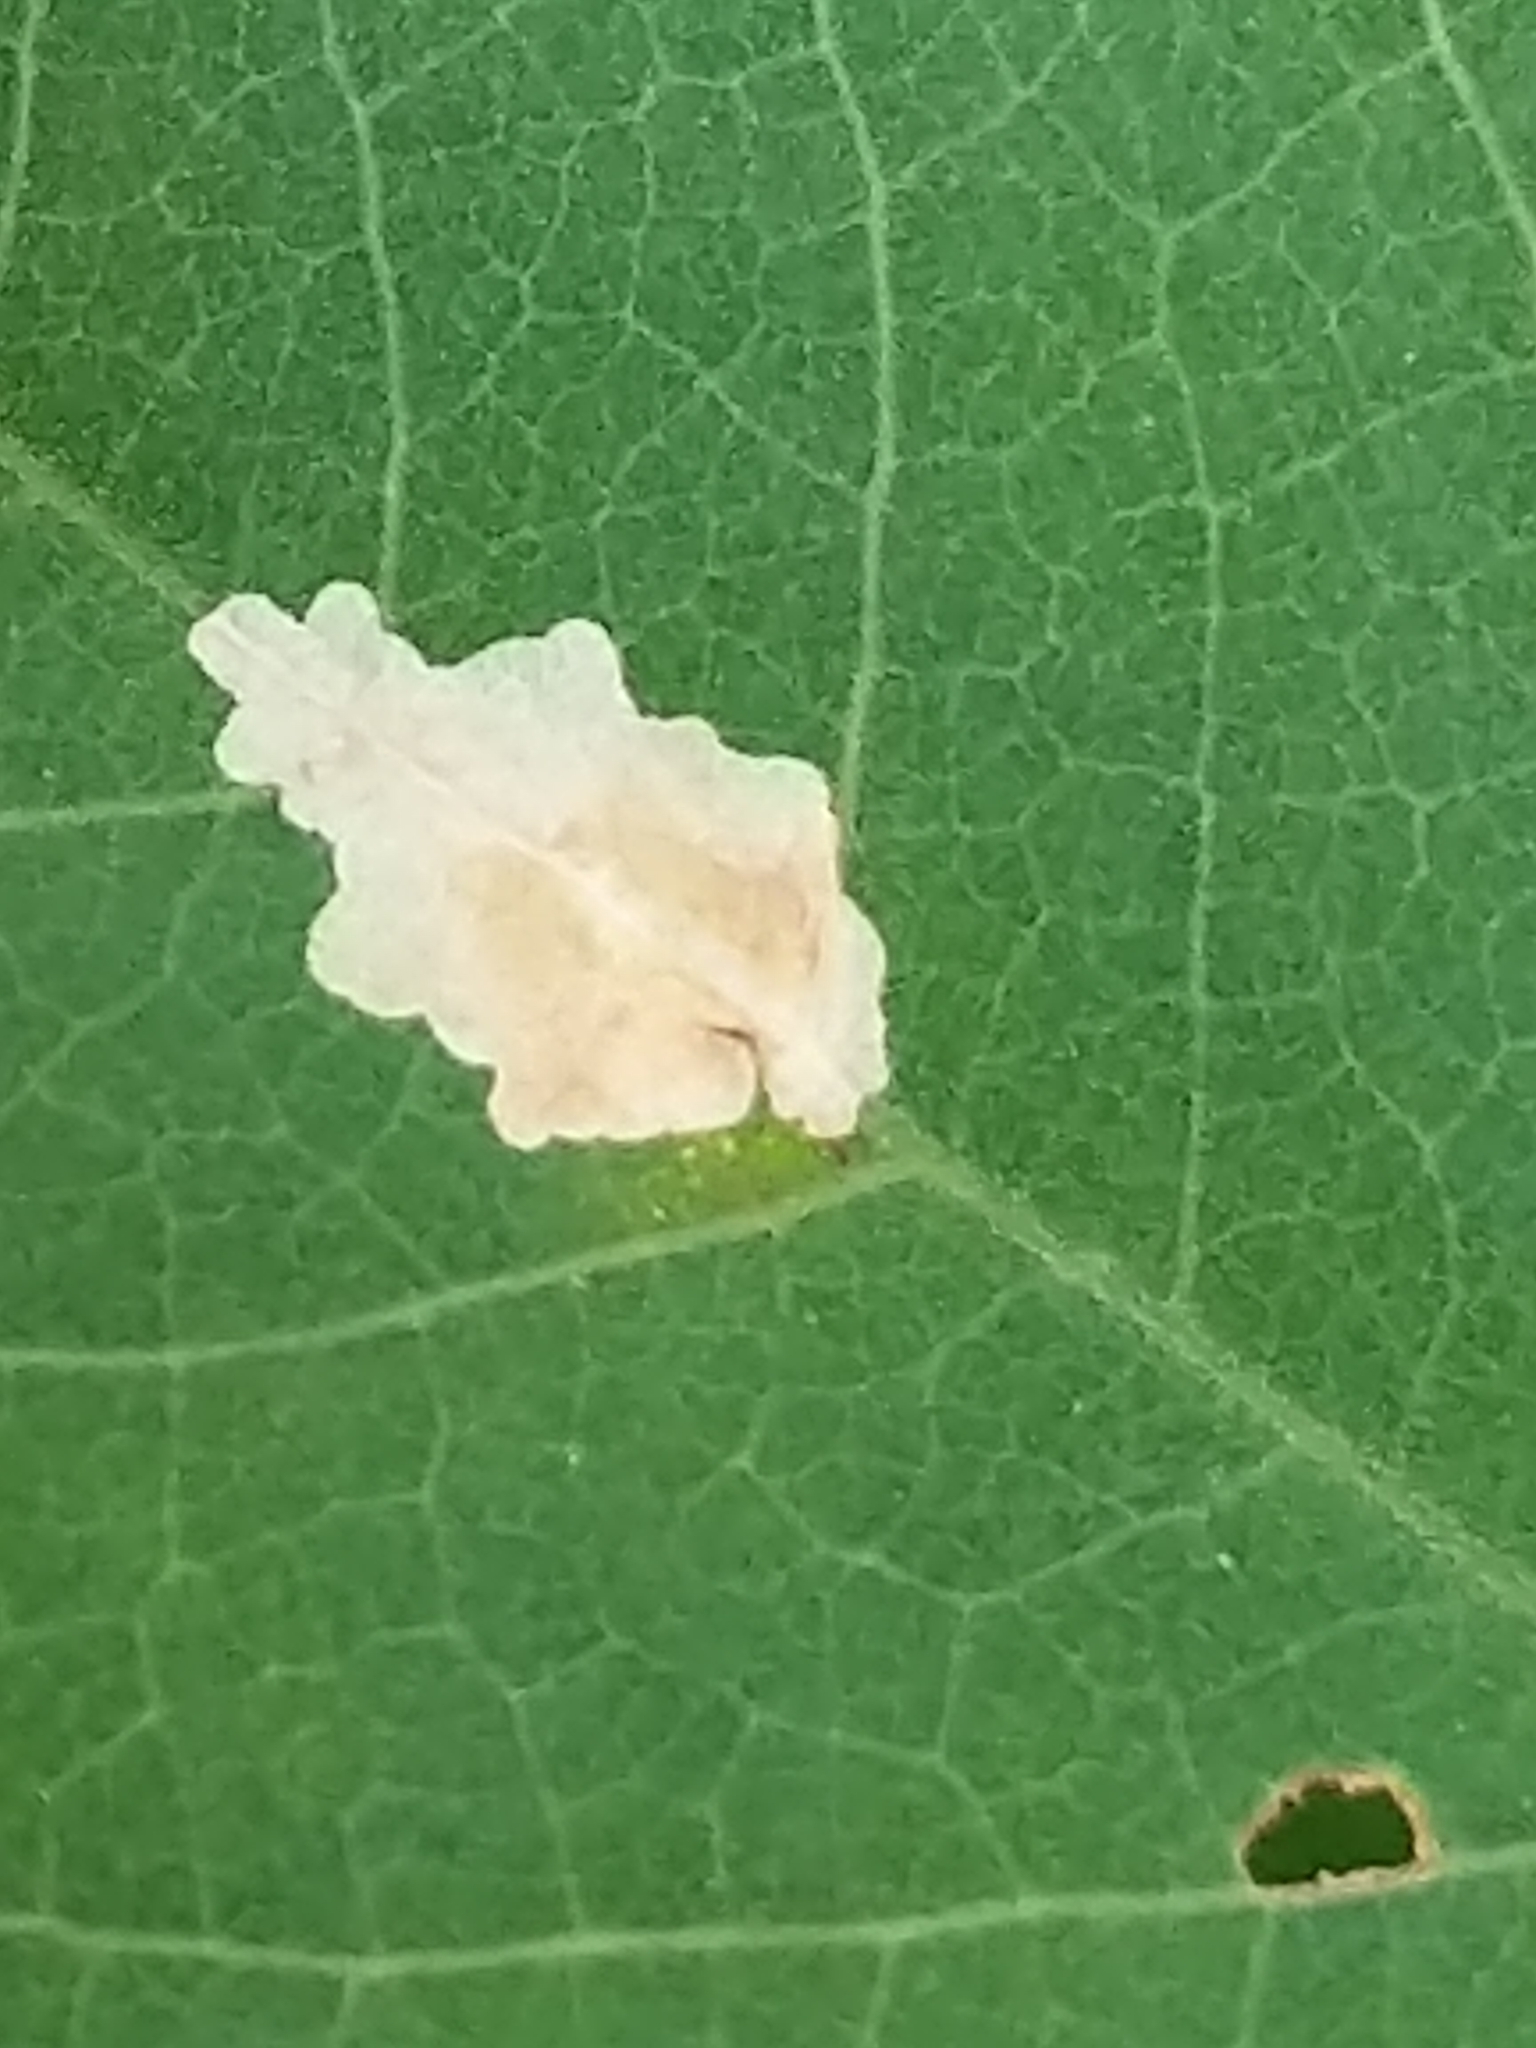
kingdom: Animalia
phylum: Arthropoda
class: Insecta
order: Lepidoptera
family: Gracillariidae
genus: Parectopa
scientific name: Parectopa robiniella
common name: Locust digitate leafminer
